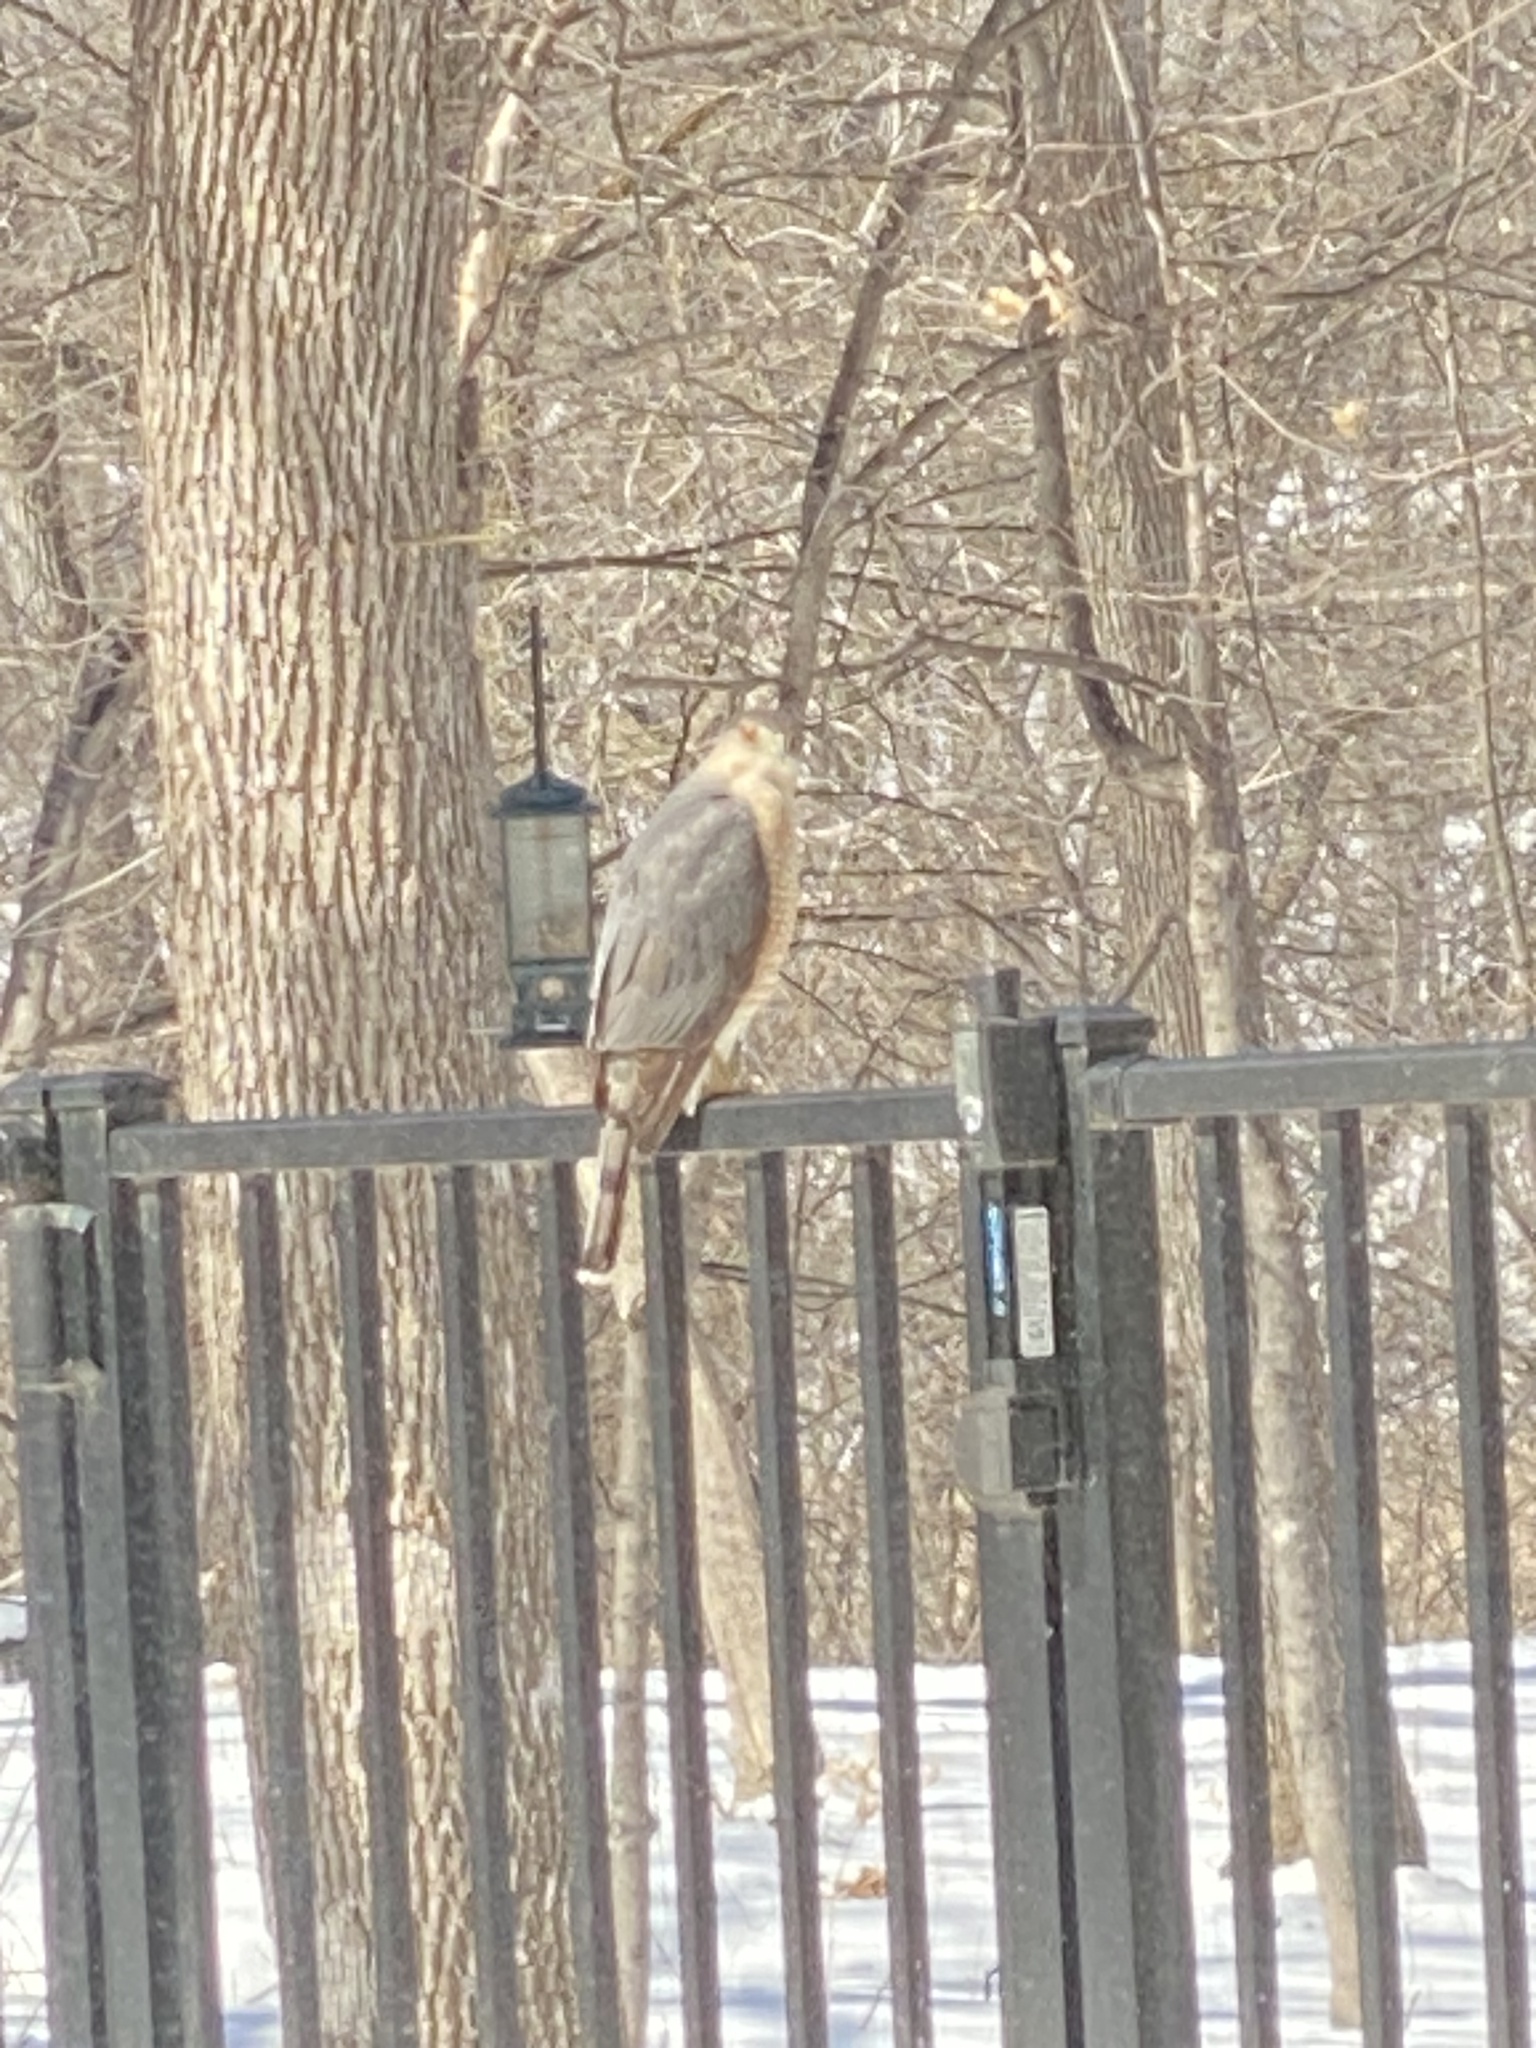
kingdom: Animalia
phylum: Chordata
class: Aves
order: Accipitriformes
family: Accipitridae
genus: Accipiter
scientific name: Accipiter cooperii
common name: Cooper's hawk
